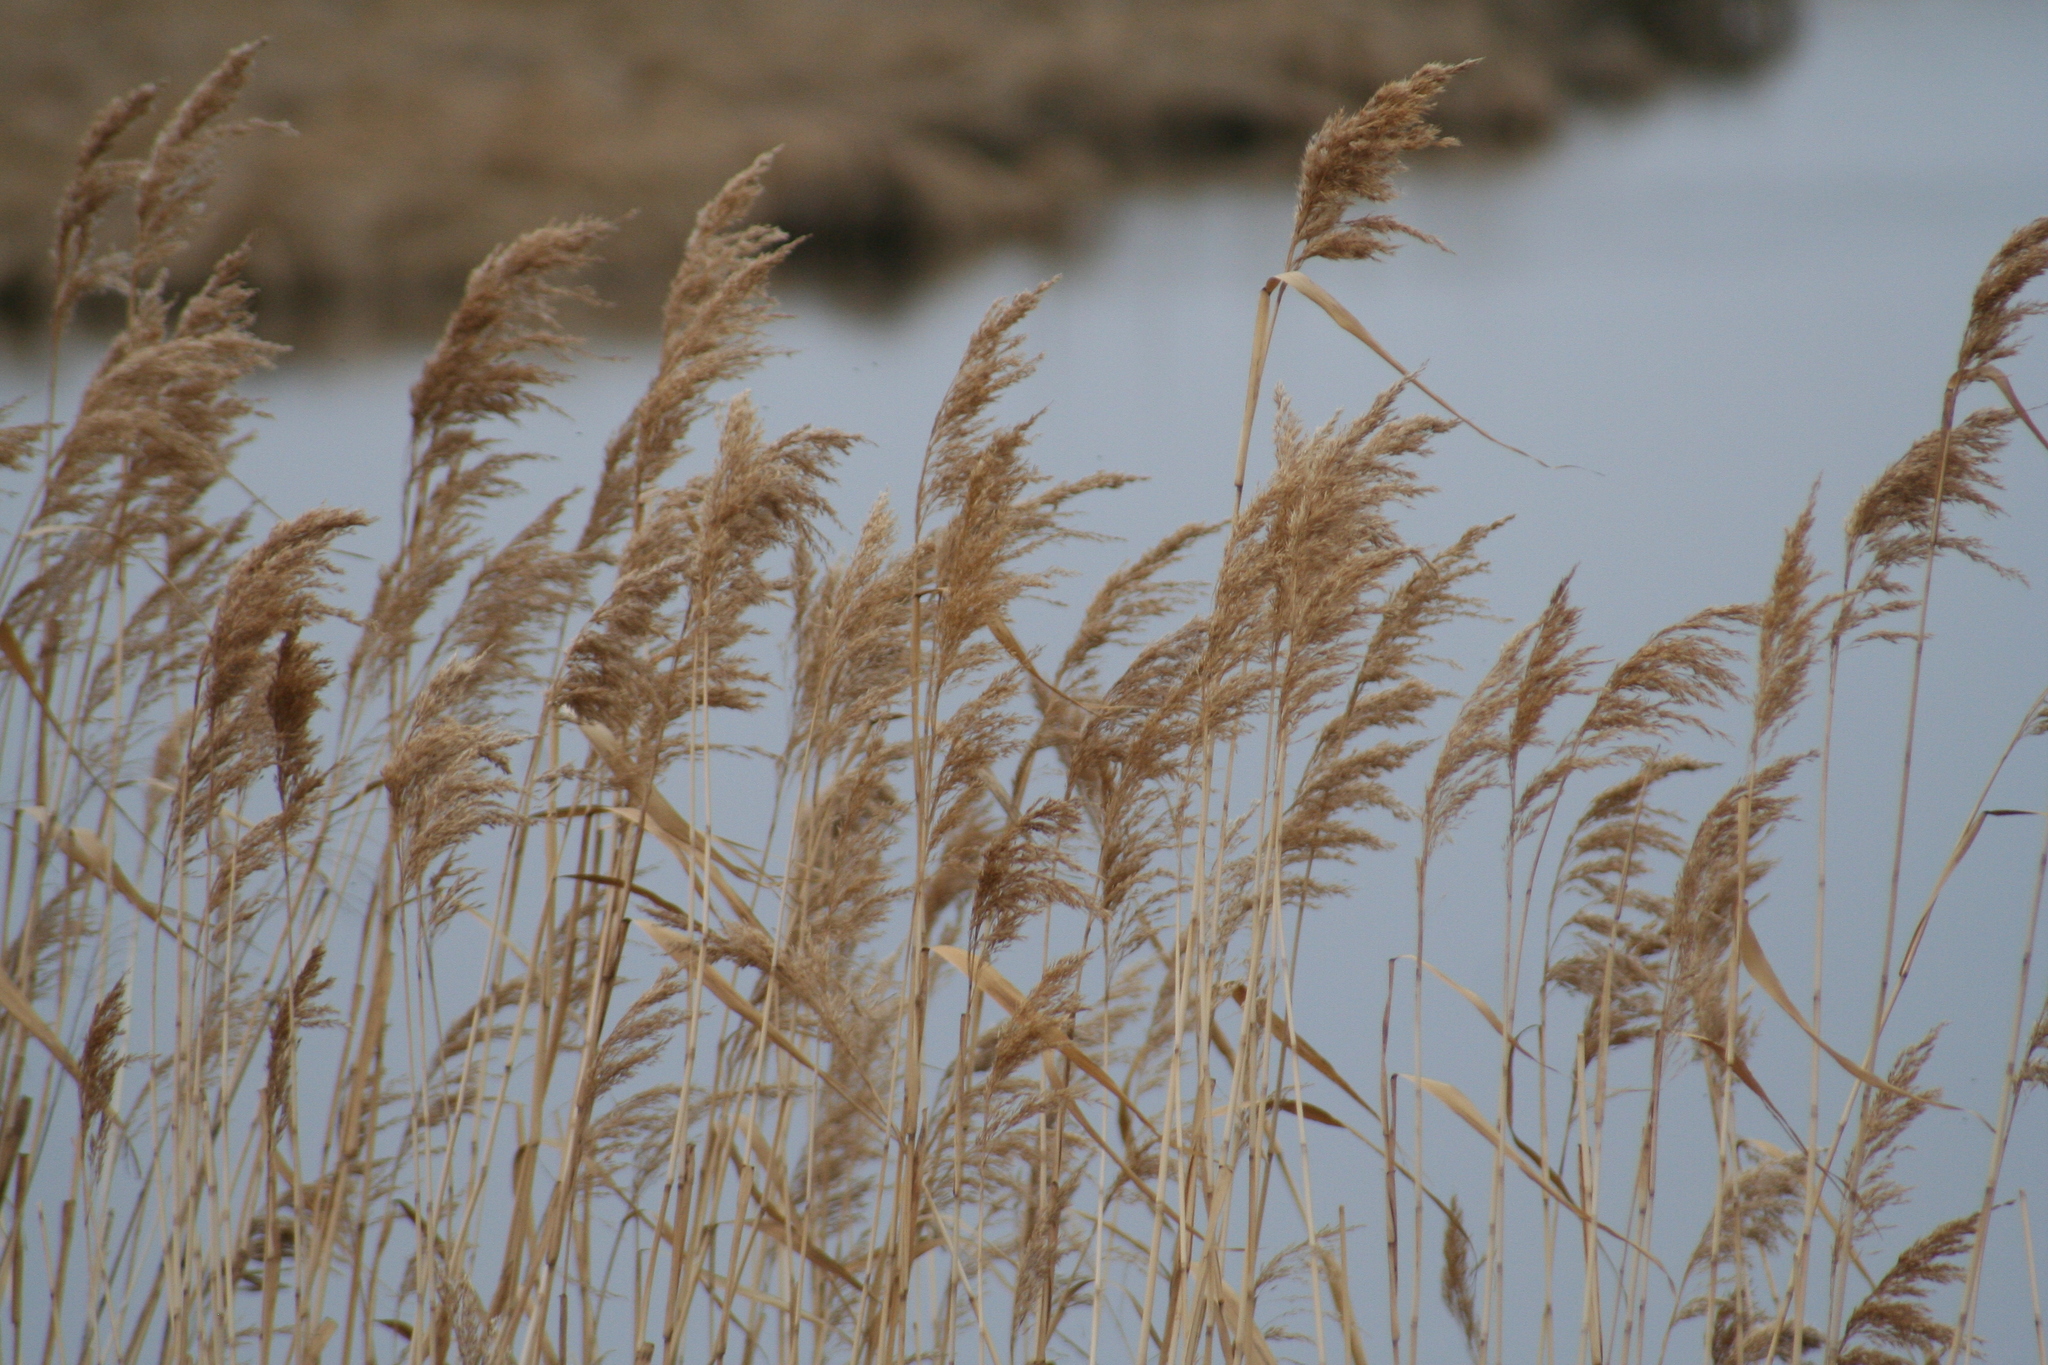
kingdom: Plantae
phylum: Tracheophyta
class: Liliopsida
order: Poales
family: Poaceae
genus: Phragmites
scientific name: Phragmites australis
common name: Common reed
